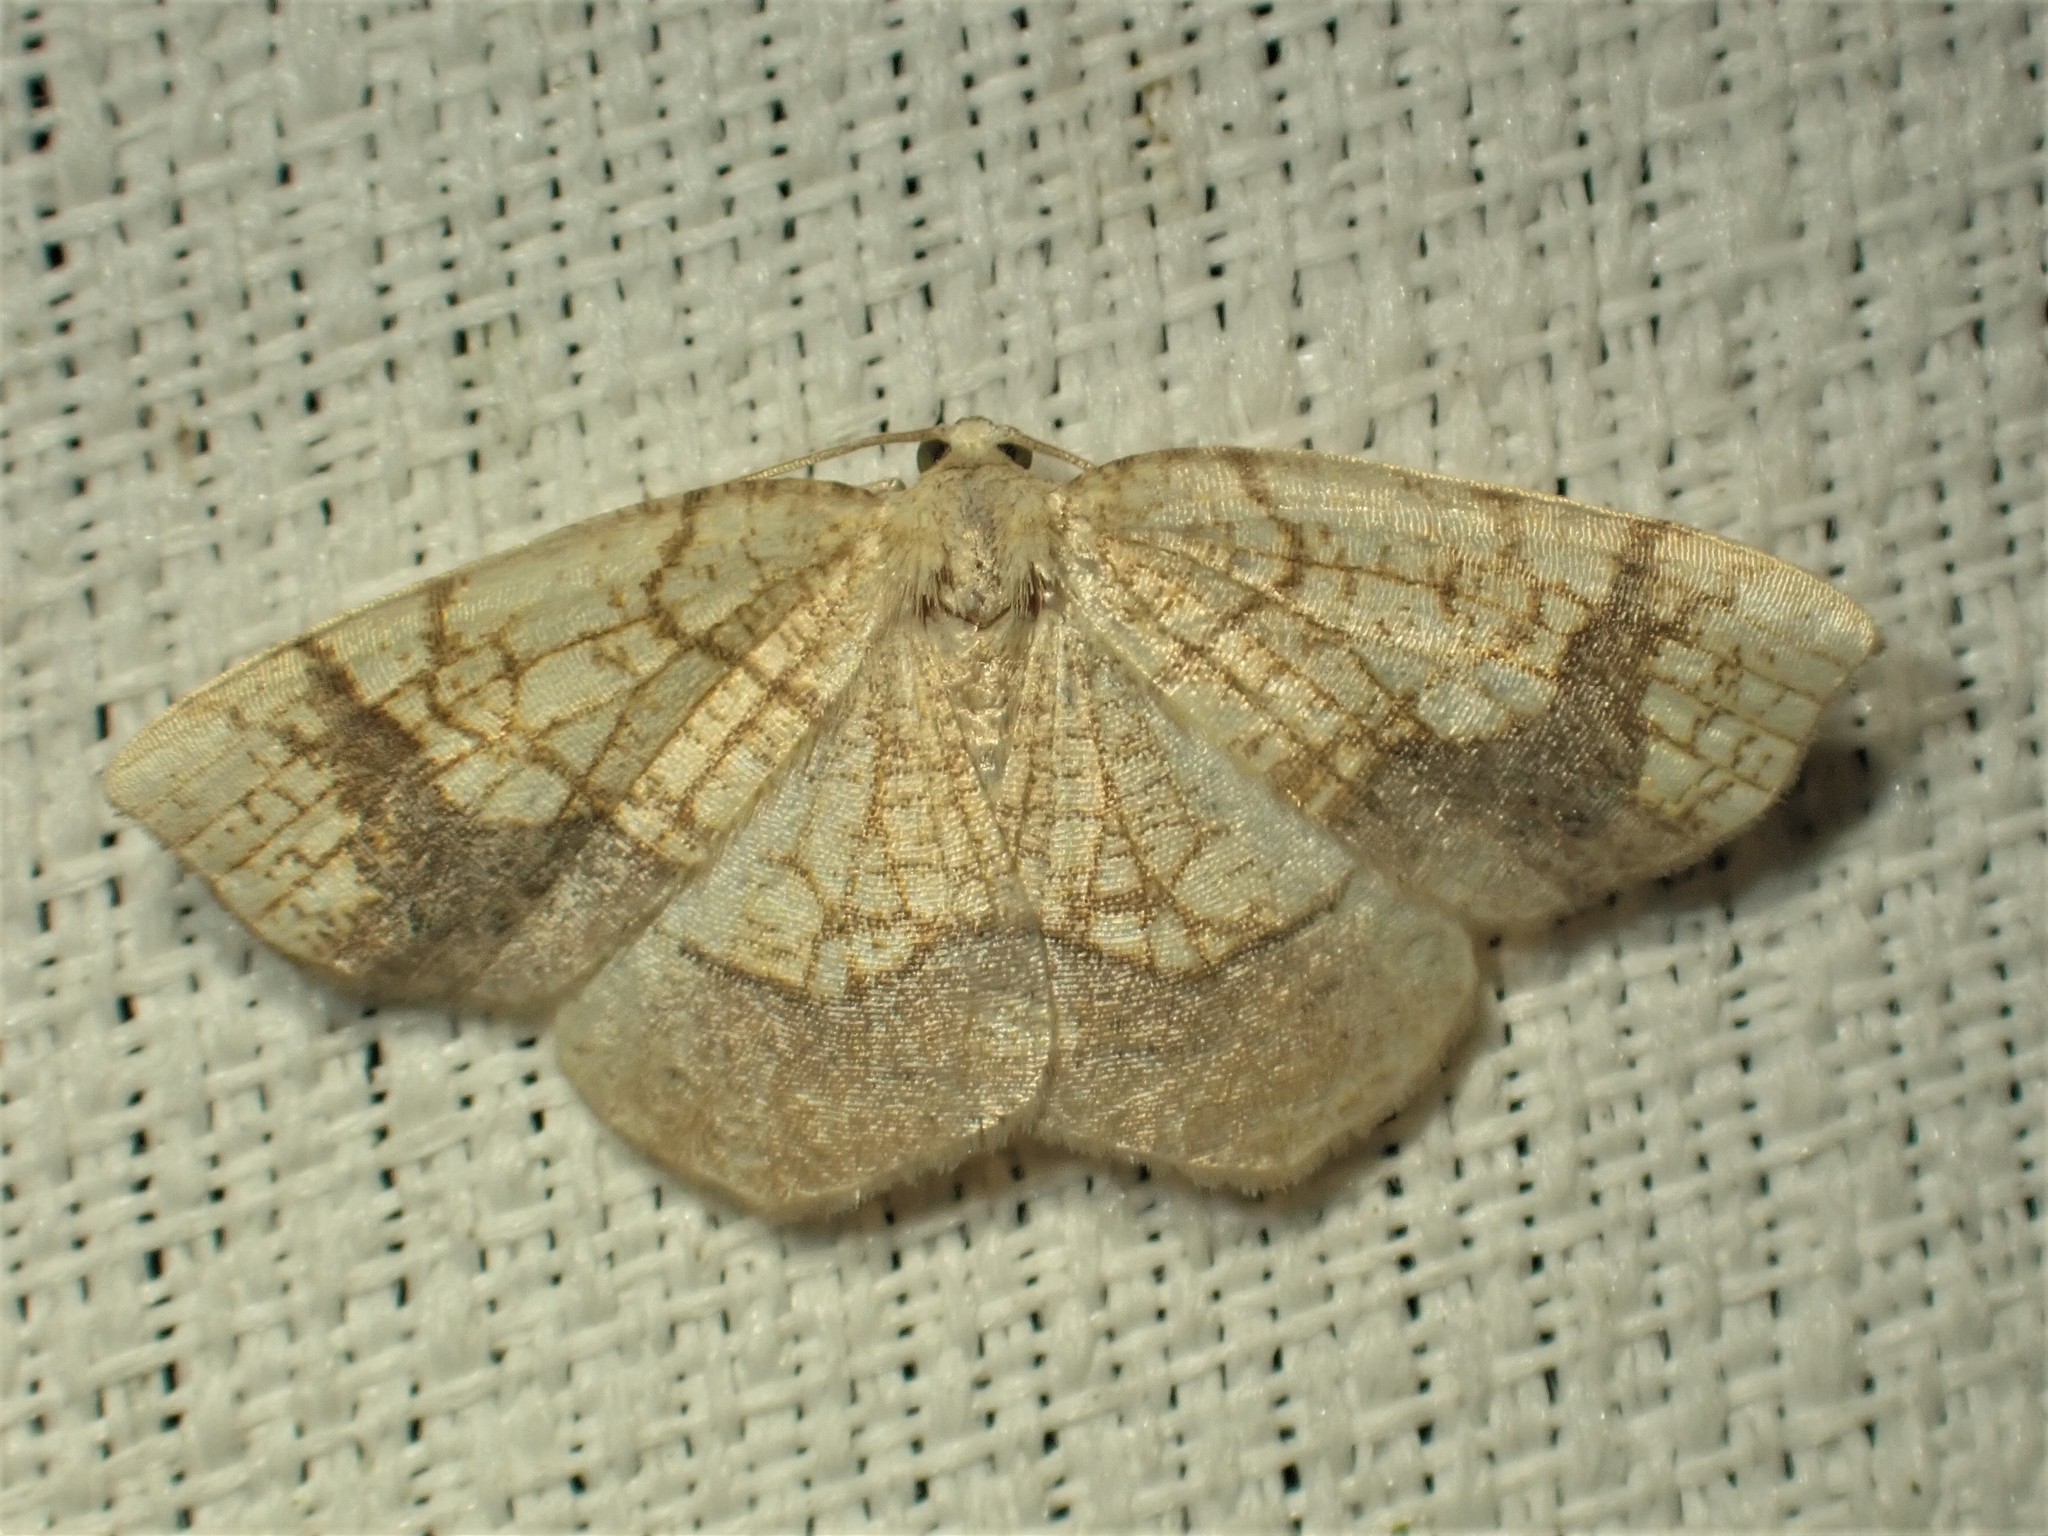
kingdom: Animalia
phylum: Arthropoda
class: Insecta
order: Lepidoptera
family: Geometridae
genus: Nematocampa
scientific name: Nematocampa resistaria
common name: Horned spanworm moth
